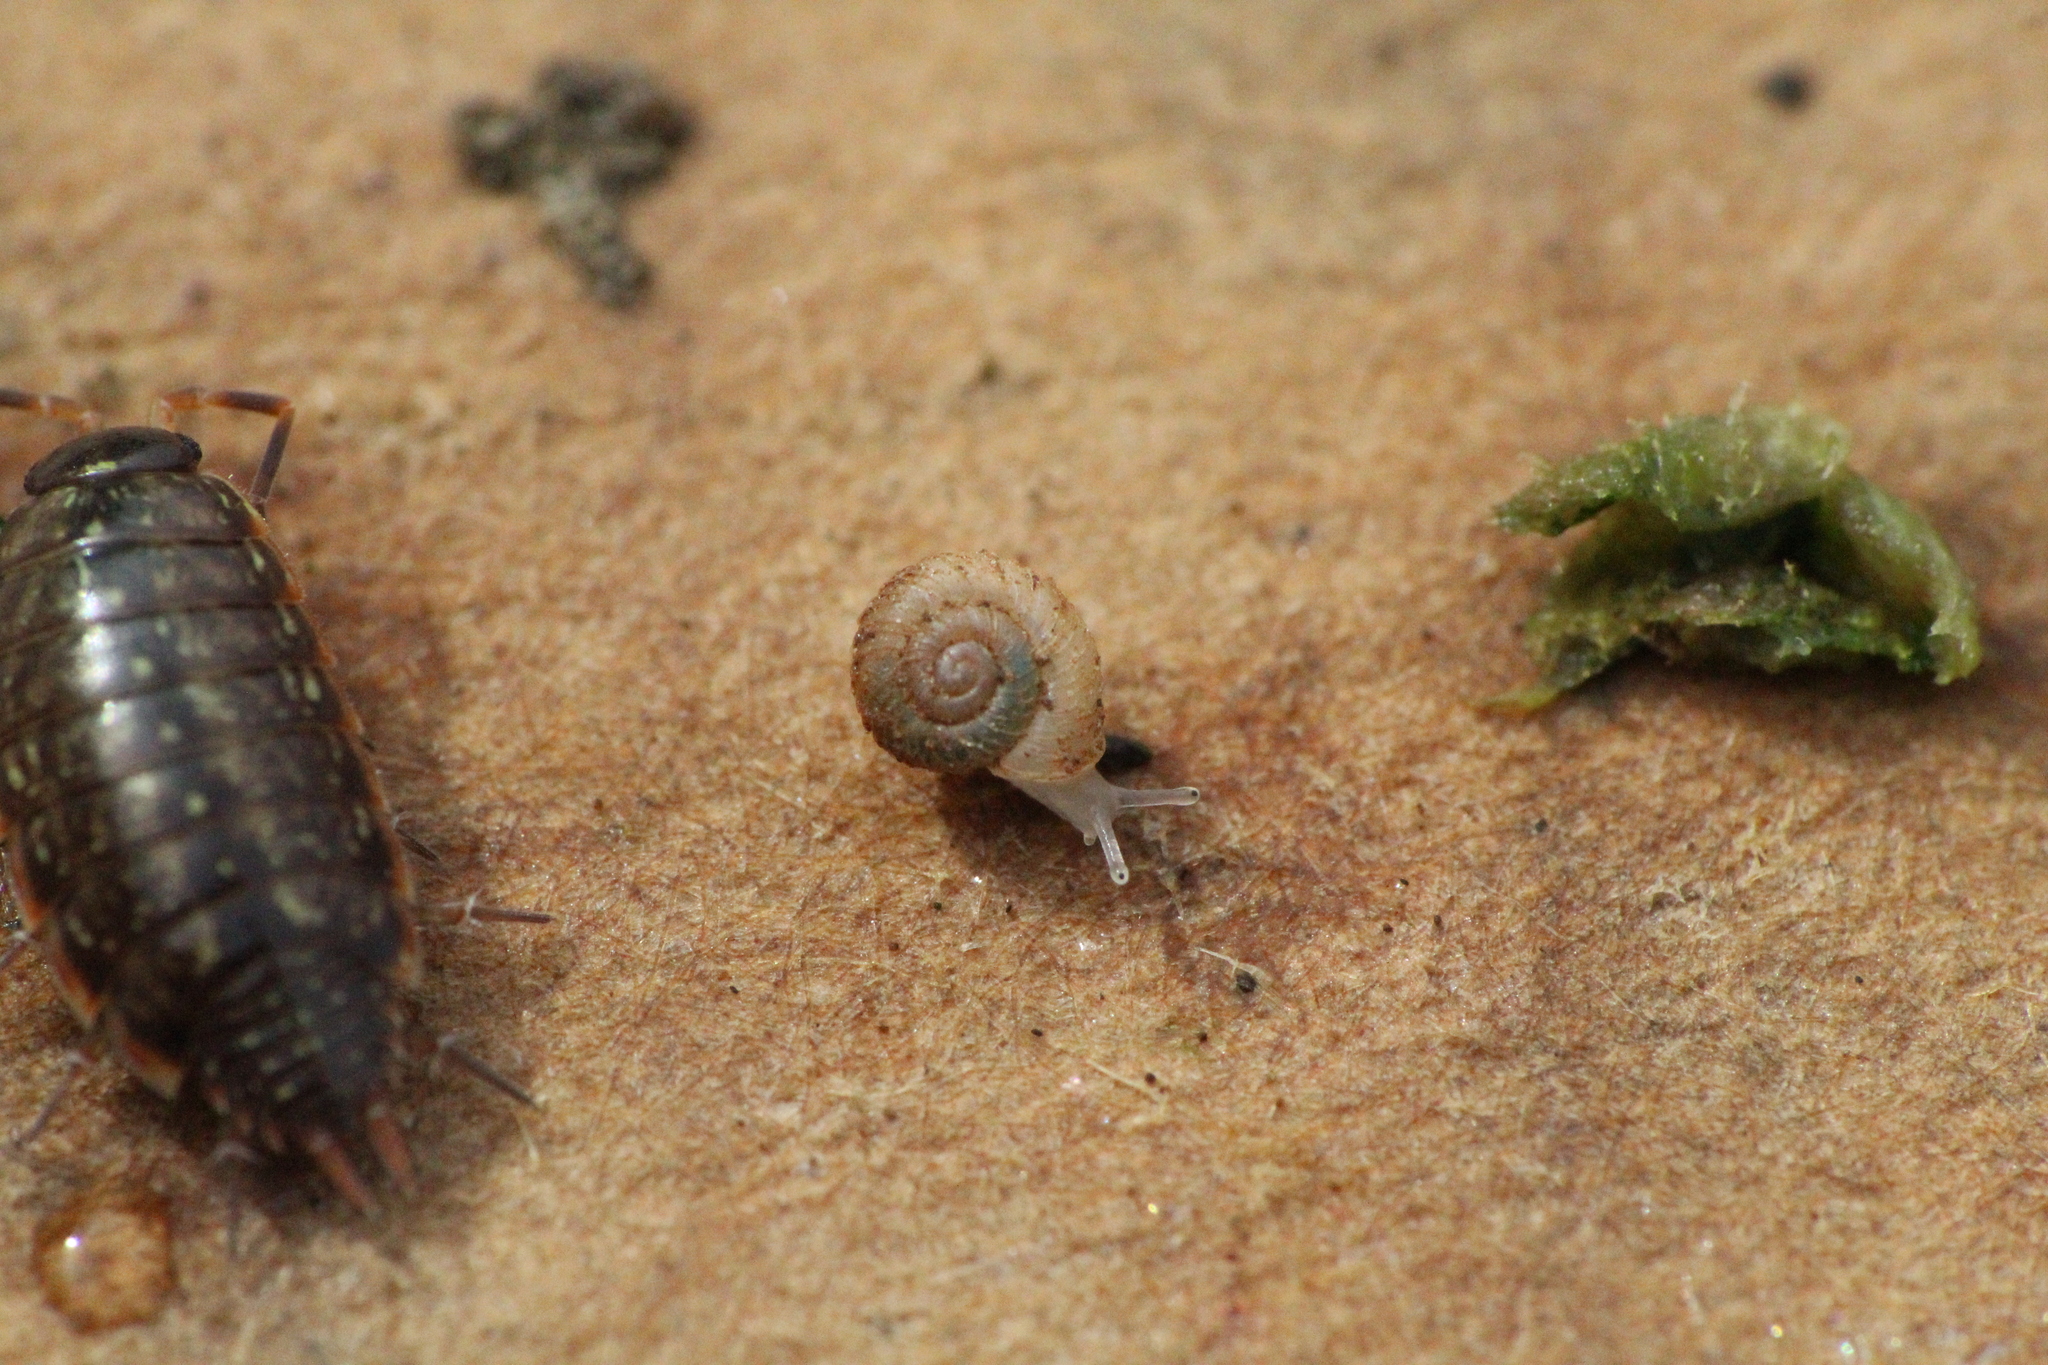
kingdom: Animalia
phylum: Mollusca
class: Gastropoda
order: Stylommatophora
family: Valloniidae
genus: Vallonia
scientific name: Vallonia costata
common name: Ribbed grass snail
